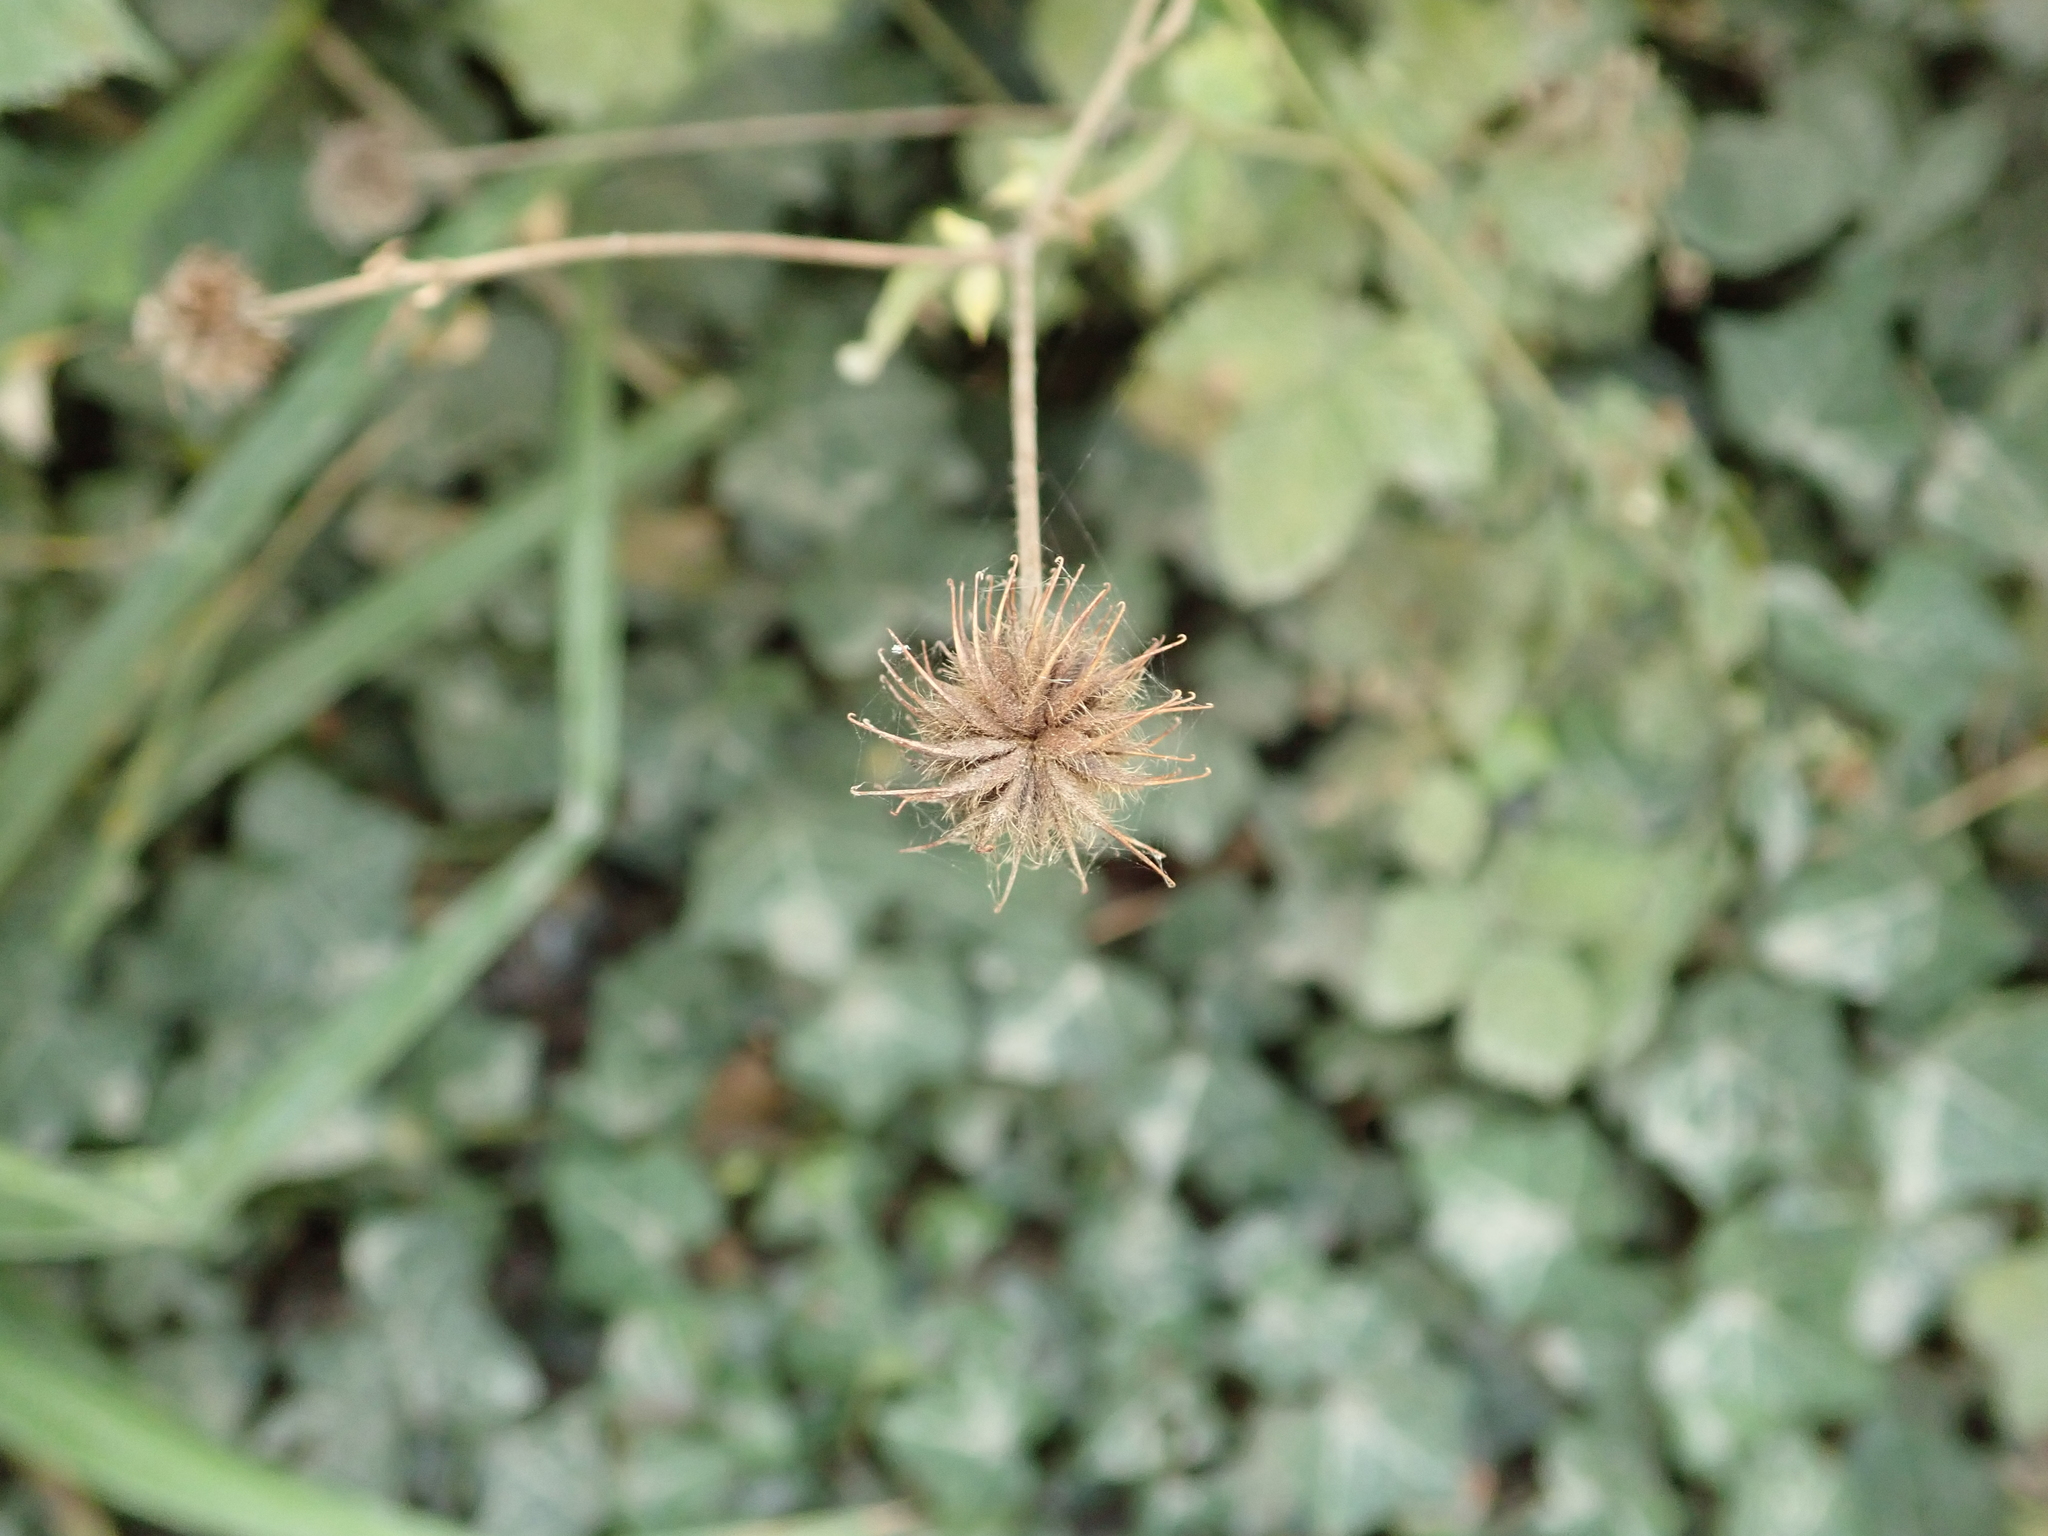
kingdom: Plantae
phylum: Tracheophyta
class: Magnoliopsida
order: Rosales
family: Rosaceae
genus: Geum
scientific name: Geum urbanum
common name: Wood avens
